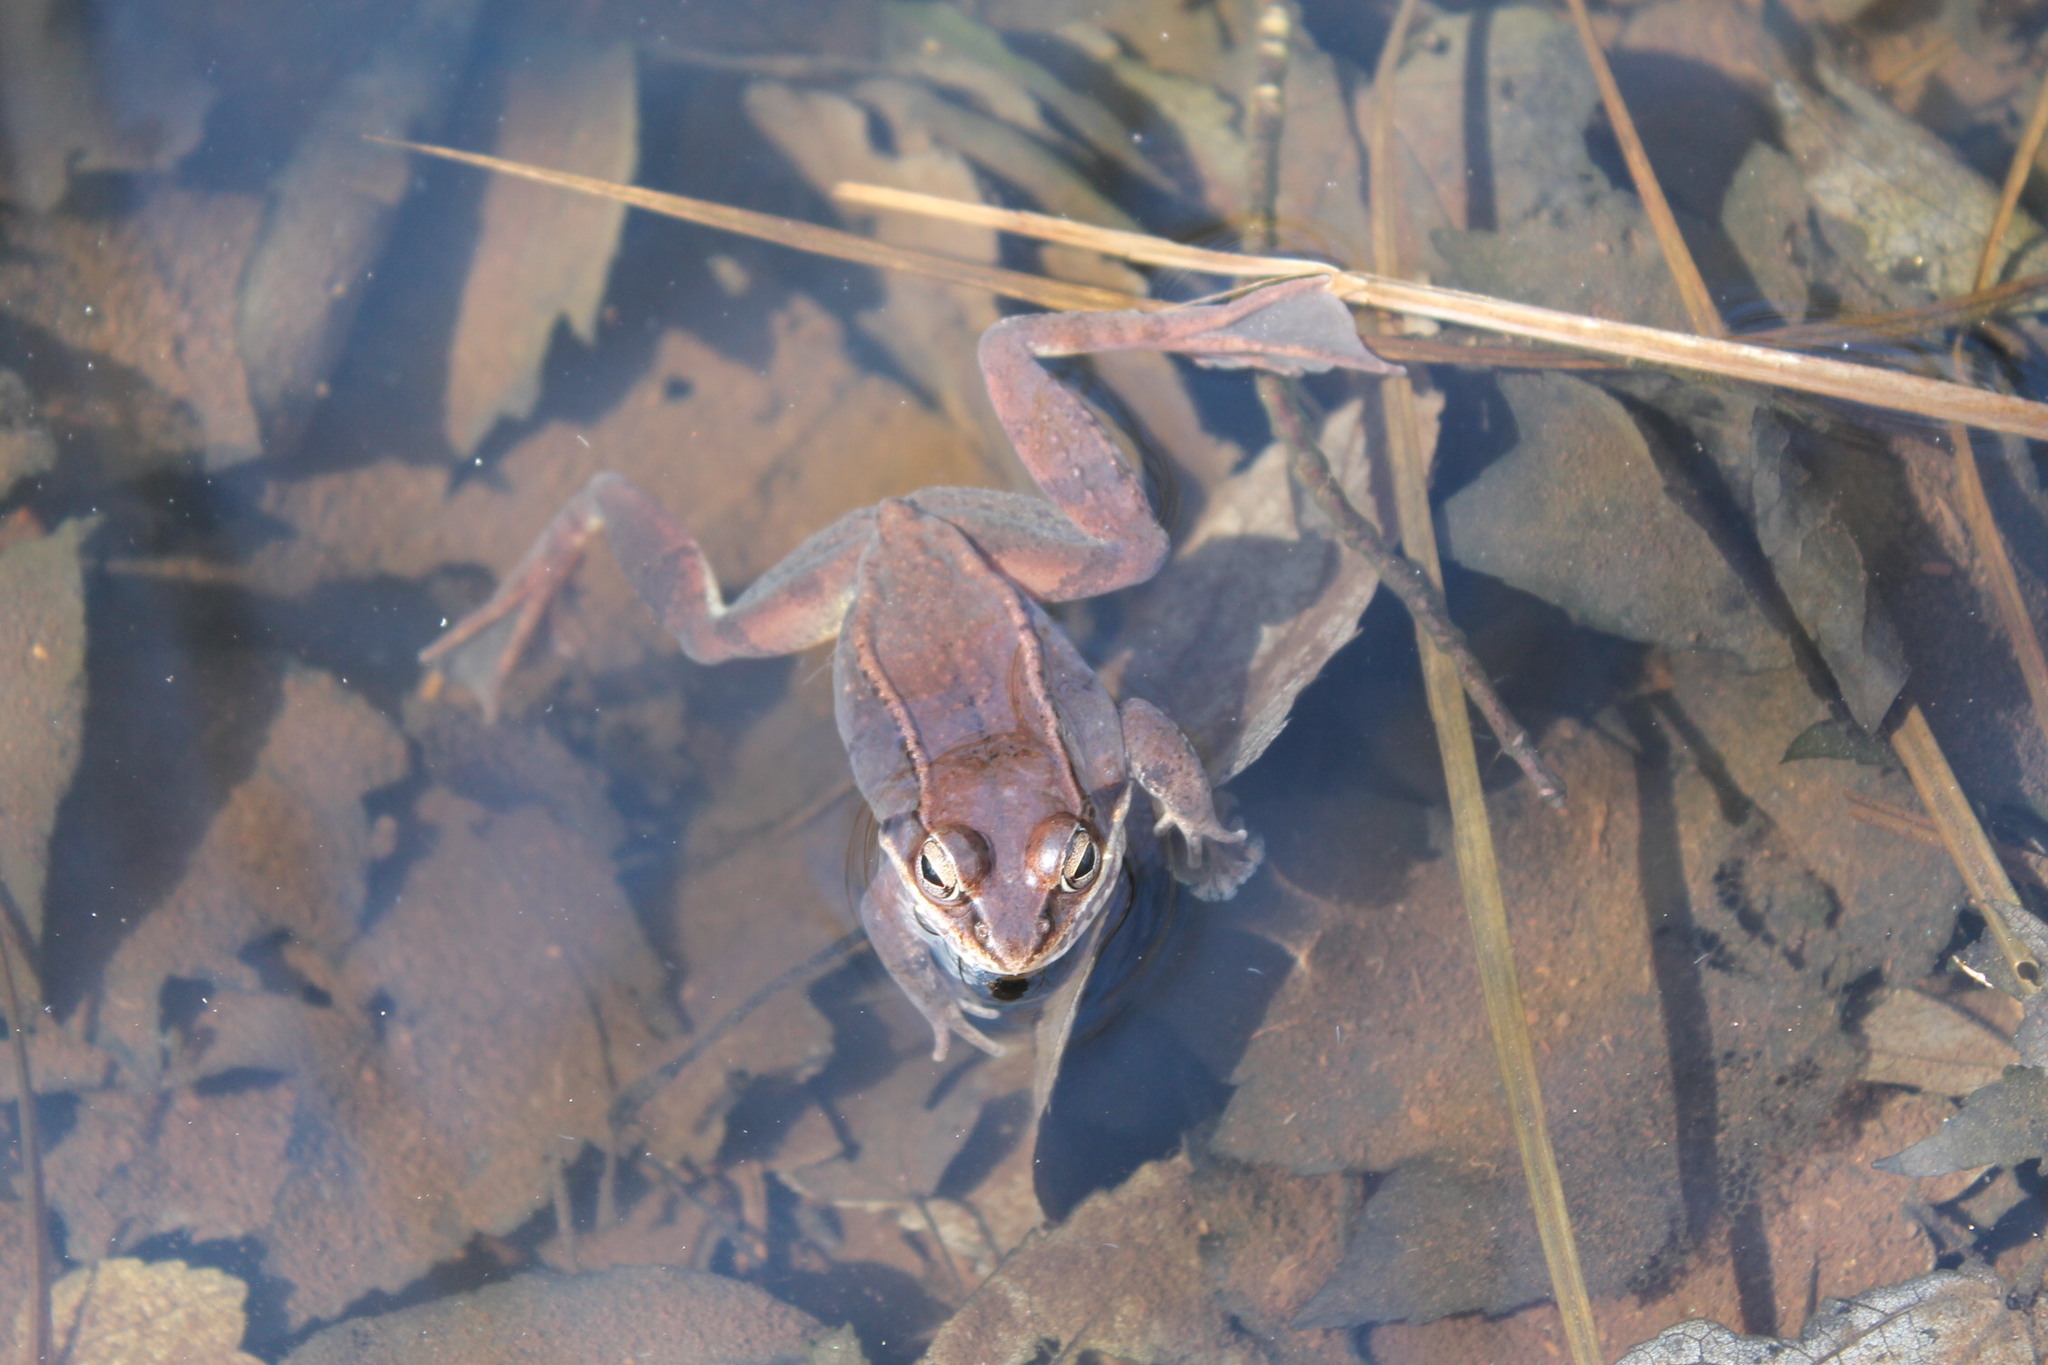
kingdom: Animalia
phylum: Chordata
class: Amphibia
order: Anura
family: Ranidae
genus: Lithobates
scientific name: Lithobates sylvaticus
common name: Wood frog
